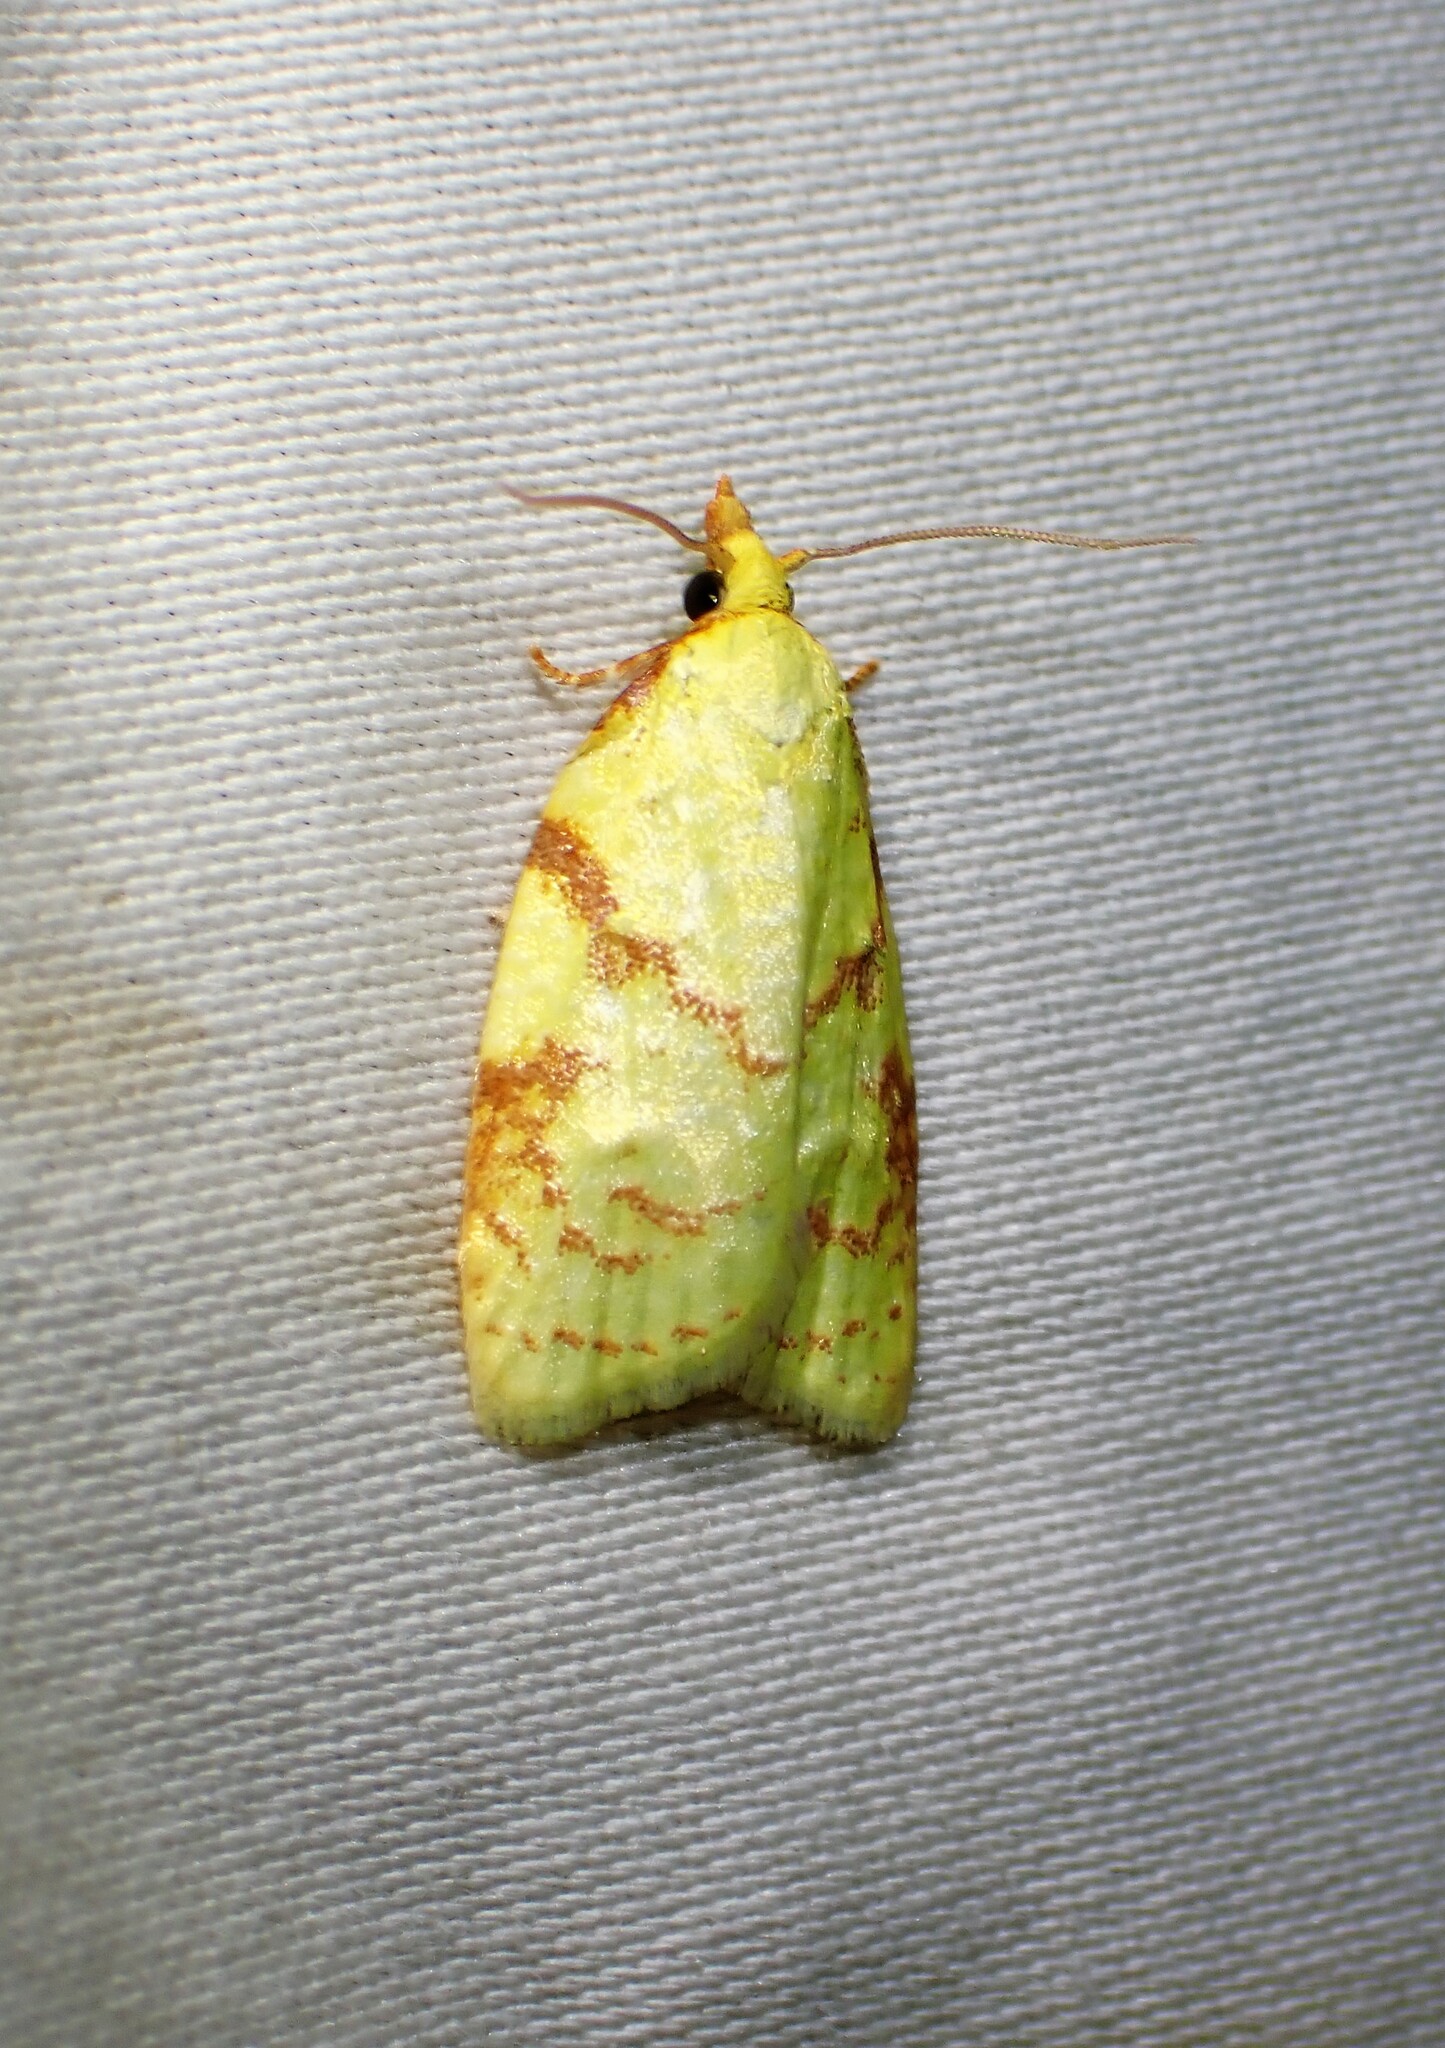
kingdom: Animalia
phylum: Arthropoda
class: Insecta
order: Lepidoptera
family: Tortricidae
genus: Cenopis
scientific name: Cenopis pettitana
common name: Maple-basswood leafroller moth
